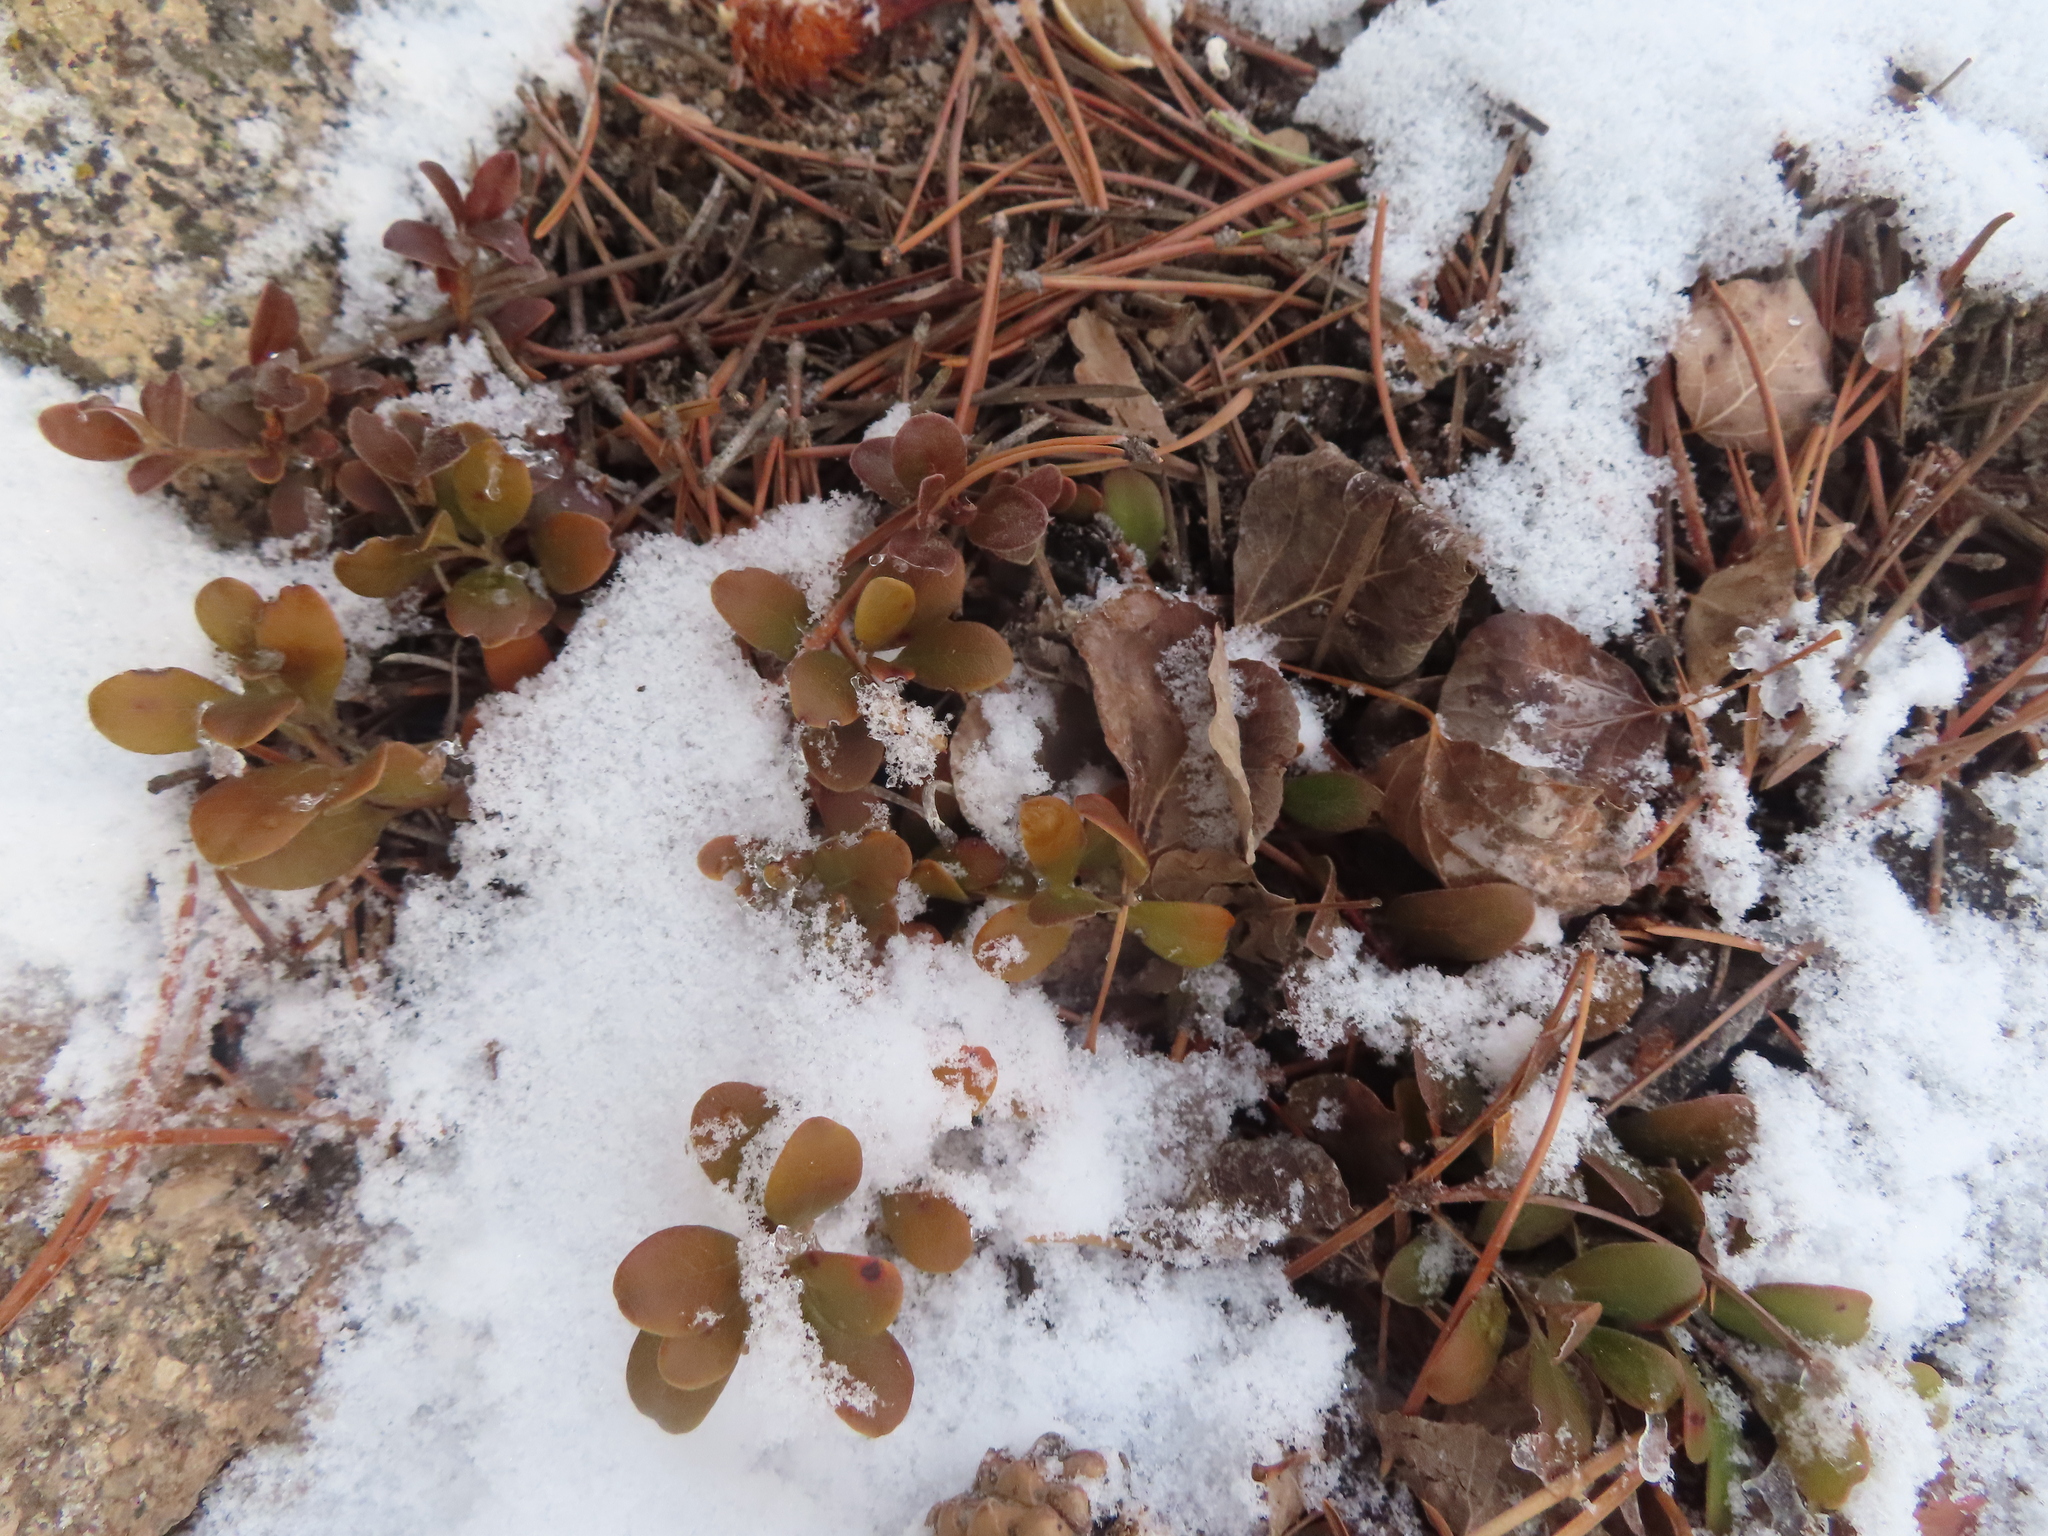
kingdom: Plantae
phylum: Tracheophyta
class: Magnoliopsida
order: Ericales
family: Ericaceae
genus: Arctostaphylos
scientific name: Arctostaphylos uva-ursi
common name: Bearberry
